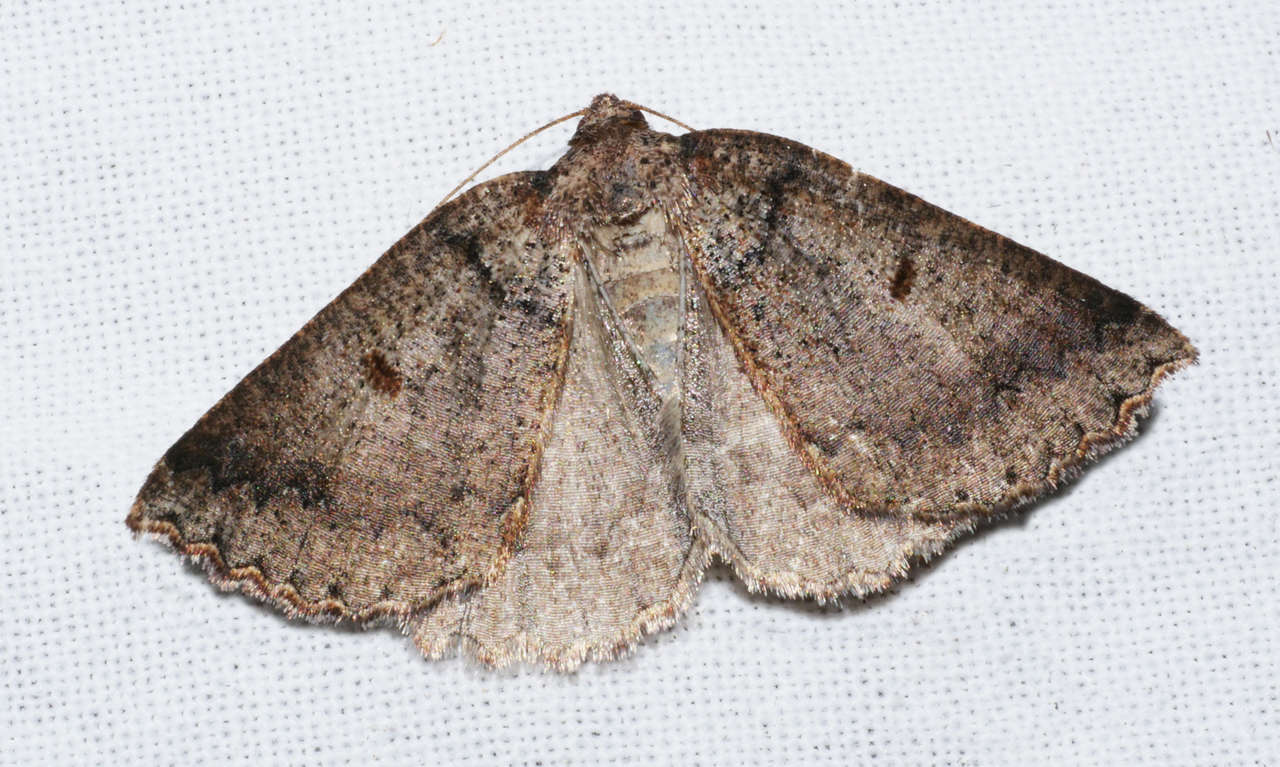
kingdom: Animalia
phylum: Arthropoda
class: Insecta
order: Lepidoptera
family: Geometridae
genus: Amelora
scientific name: Amelora synclera
